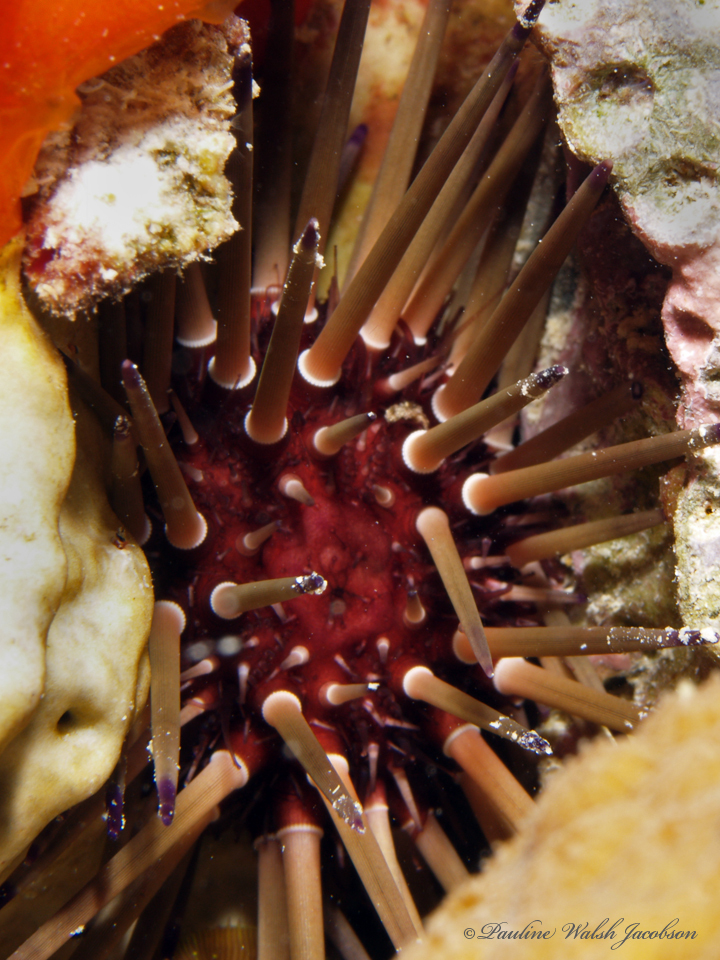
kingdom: Animalia
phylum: Echinodermata
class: Echinoidea
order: Camarodonta
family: Echinometridae
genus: Echinometra
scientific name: Echinometra viridis
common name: Reef urchin
